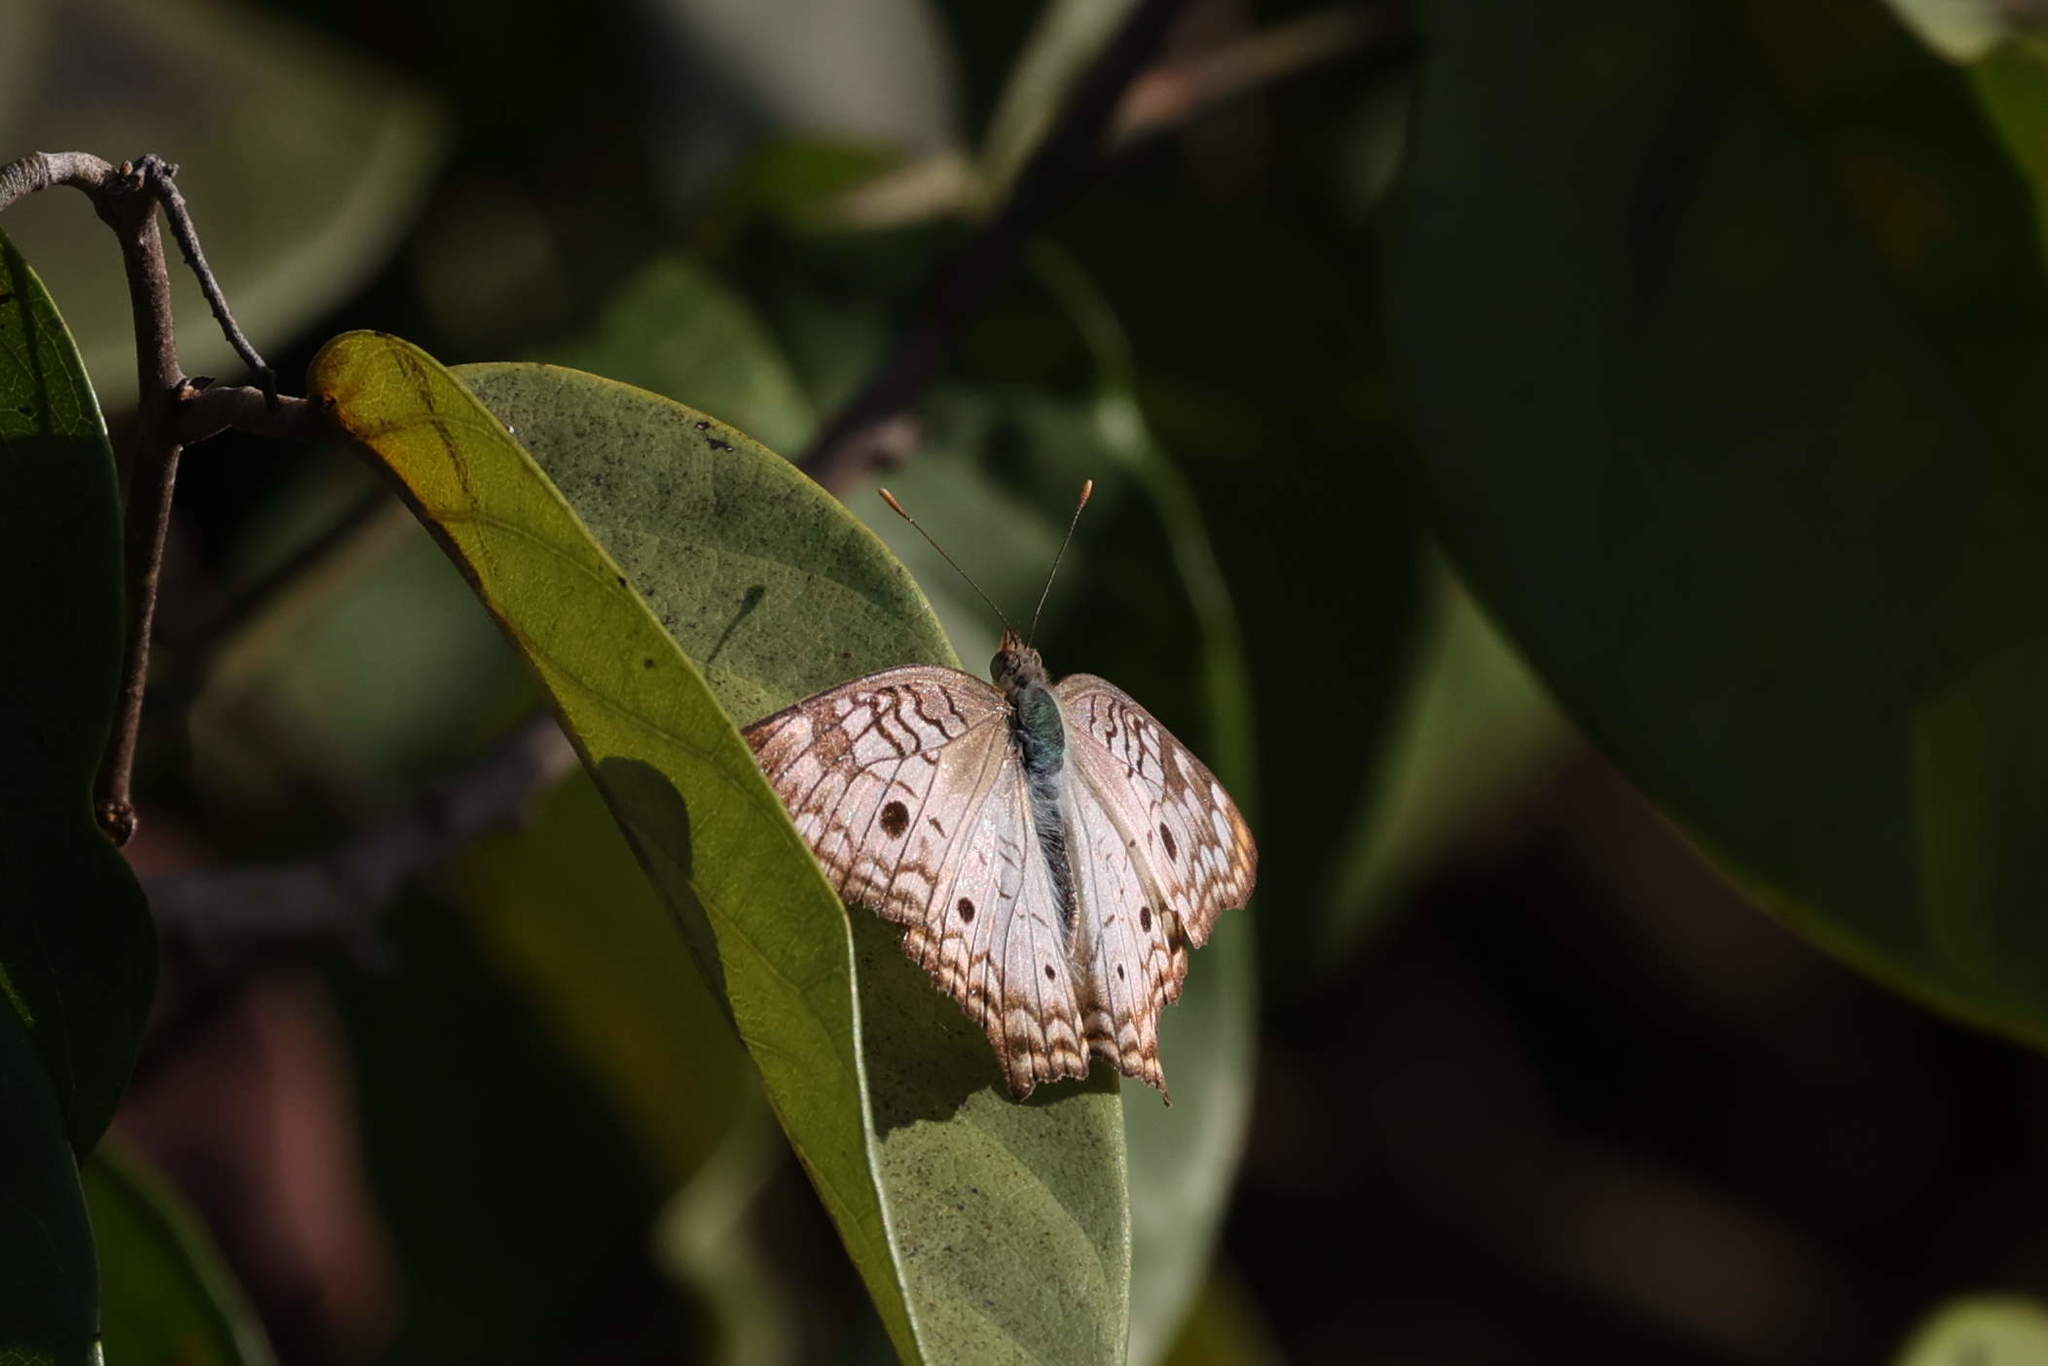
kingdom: Animalia
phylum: Arthropoda
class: Insecta
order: Lepidoptera
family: Nymphalidae
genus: Anartia
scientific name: Anartia jatrophae
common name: White peacock
